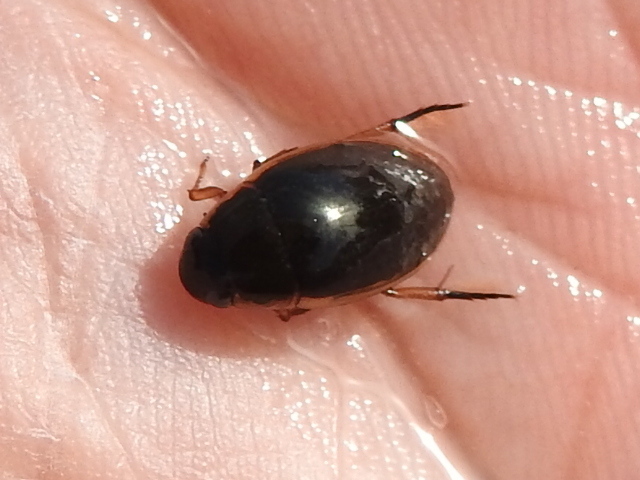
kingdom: Animalia
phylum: Arthropoda
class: Insecta
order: Coleoptera
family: Hydrophilidae
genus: Tropisternus
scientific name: Tropisternus lateralis
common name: Lateral-banded water scavenger beetle
